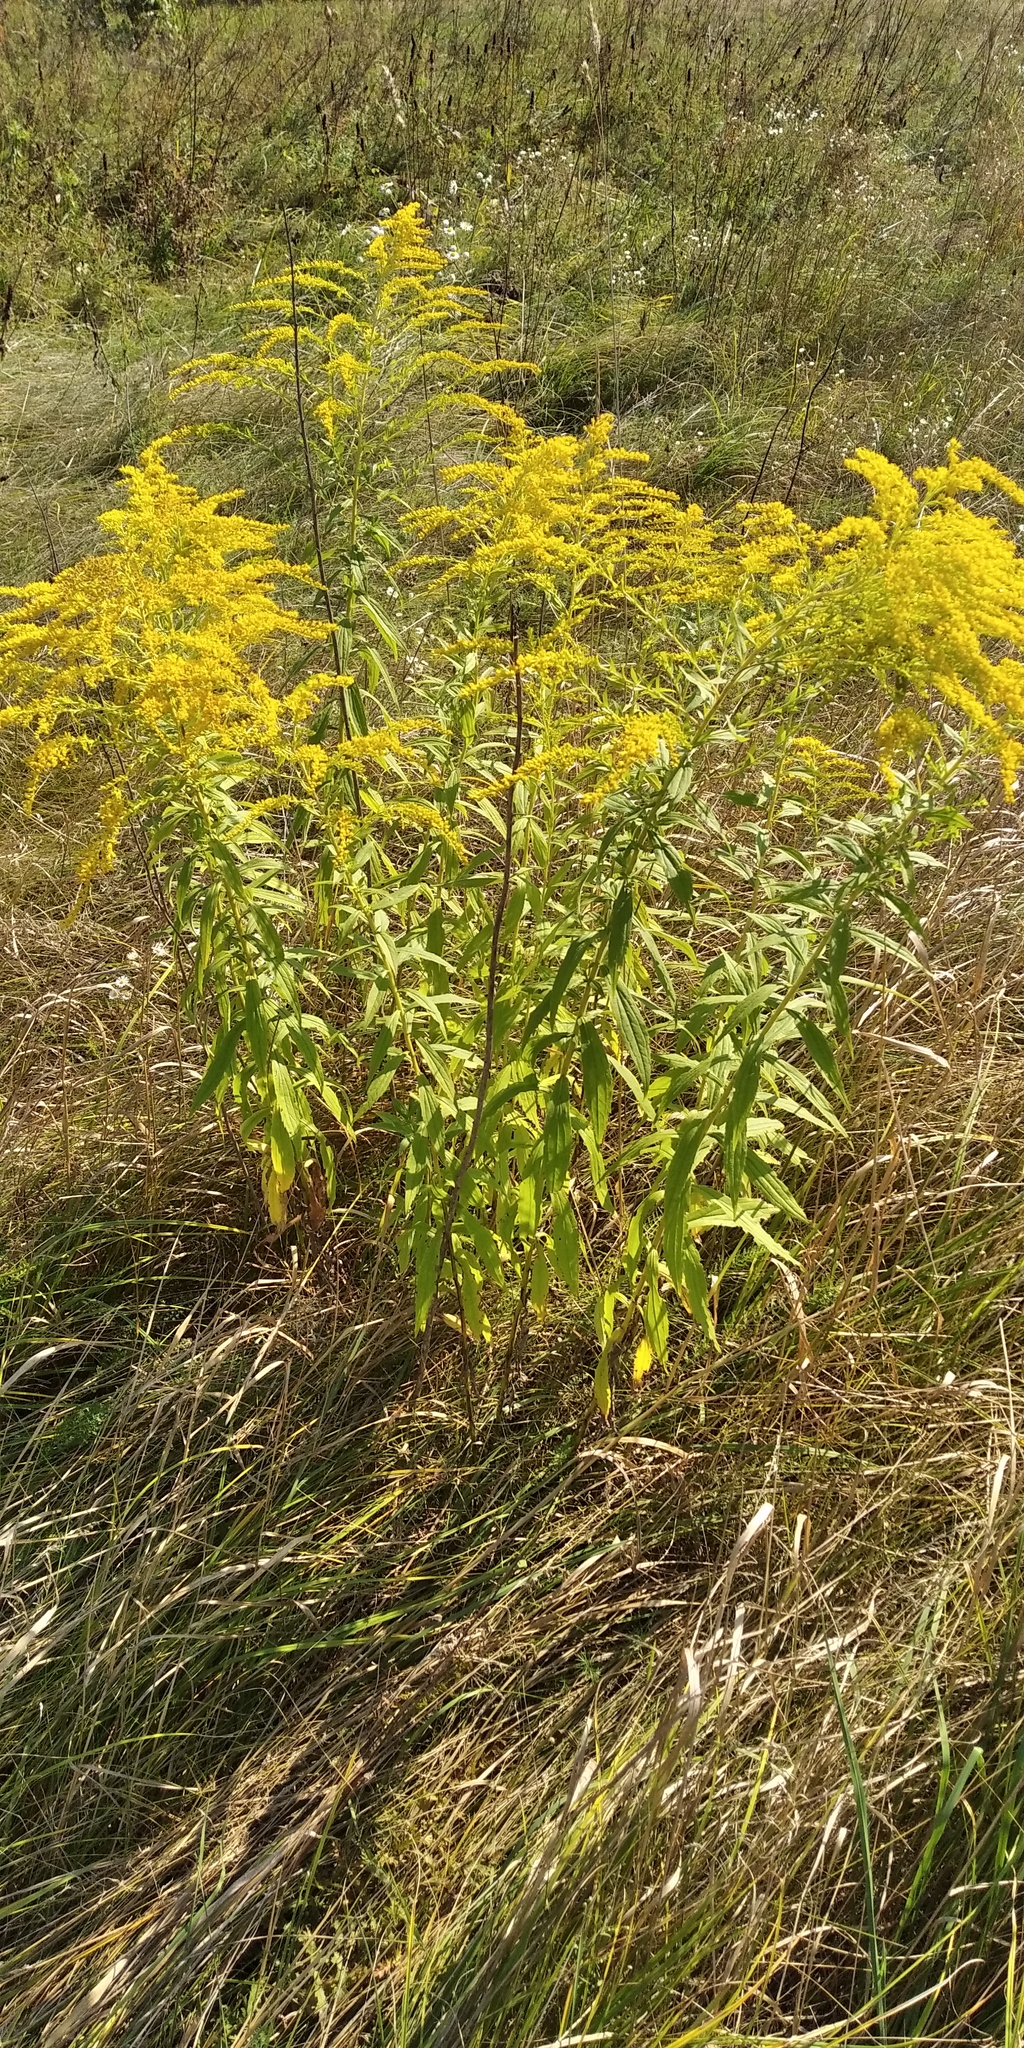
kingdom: Plantae
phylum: Tracheophyta
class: Magnoliopsida
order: Asterales
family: Asteraceae
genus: Solidago
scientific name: Solidago canadensis
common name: Canada goldenrod
